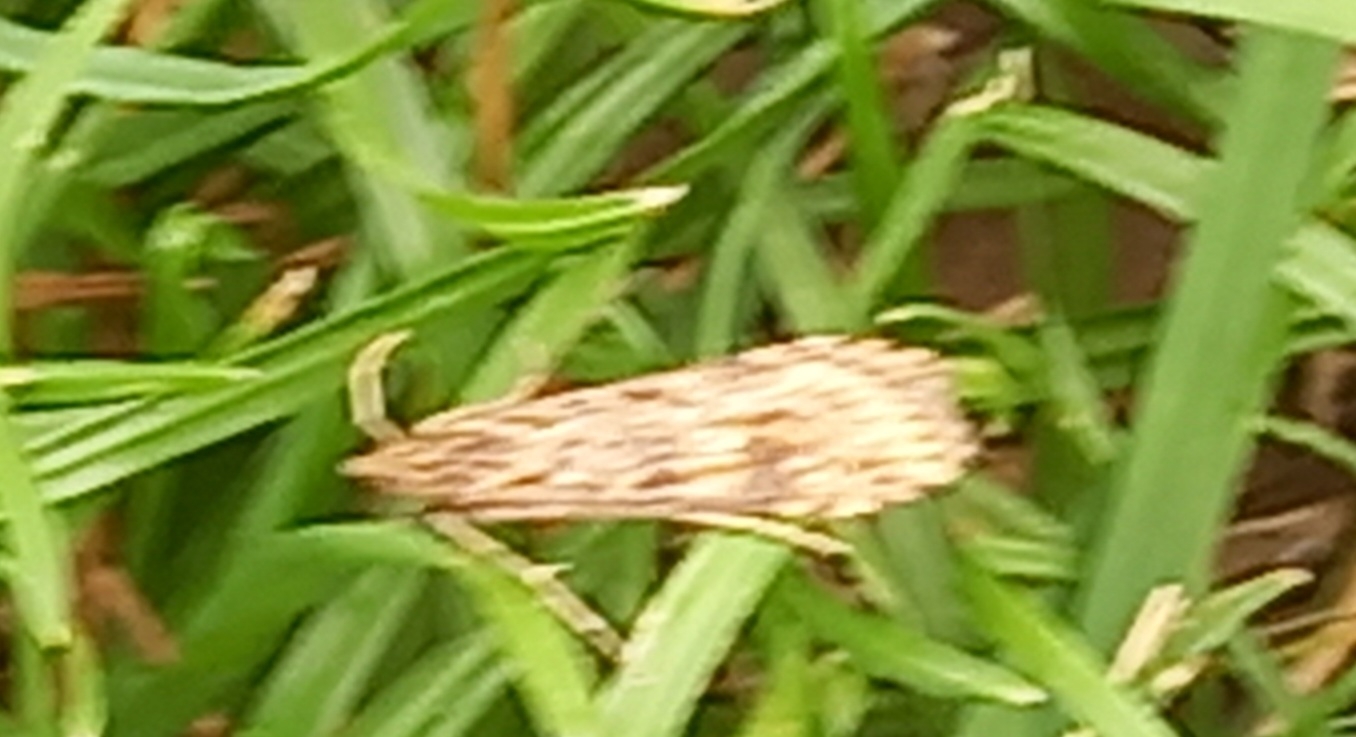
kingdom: Animalia
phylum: Arthropoda
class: Insecta
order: Lepidoptera
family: Crambidae
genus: Nomophila
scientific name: Nomophila noctuella
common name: Rush veneer
